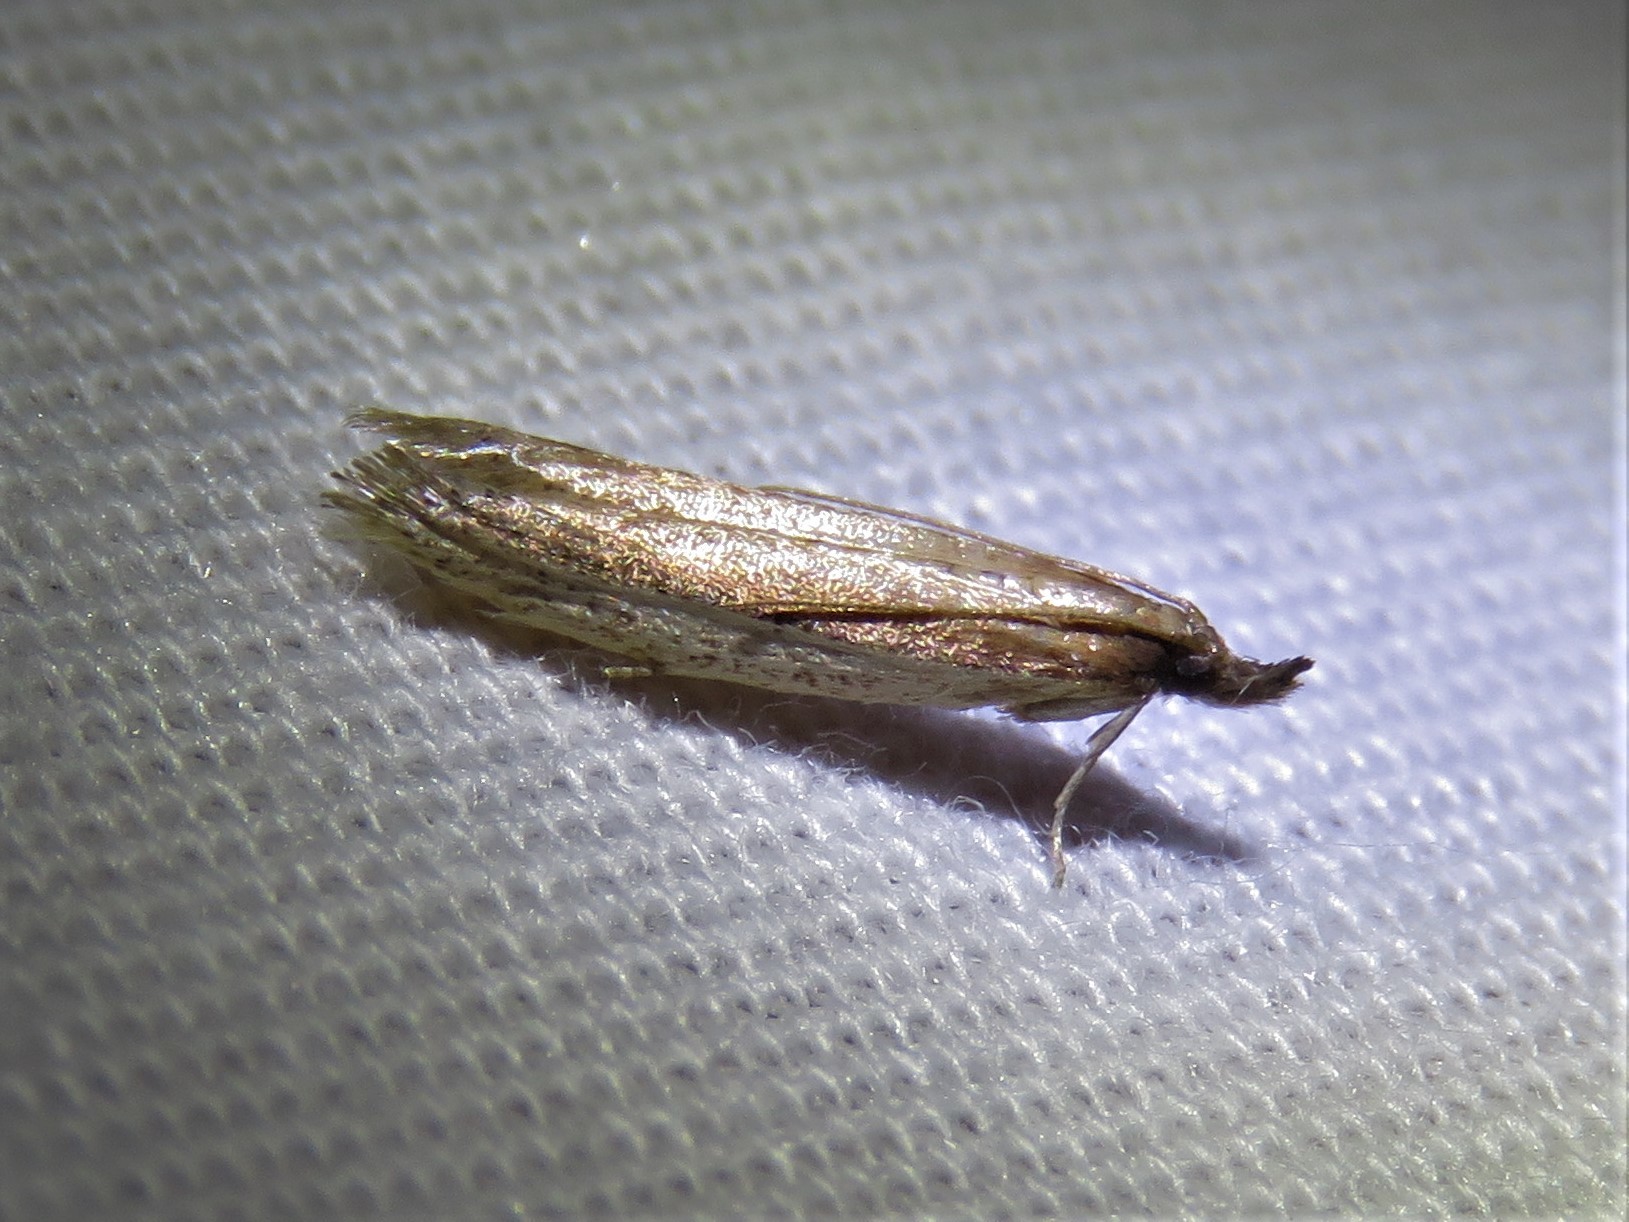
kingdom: Animalia
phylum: Arthropoda
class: Insecta
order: Lepidoptera
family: Pyralidae
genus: Tampa
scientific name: Tampa dimediatella
